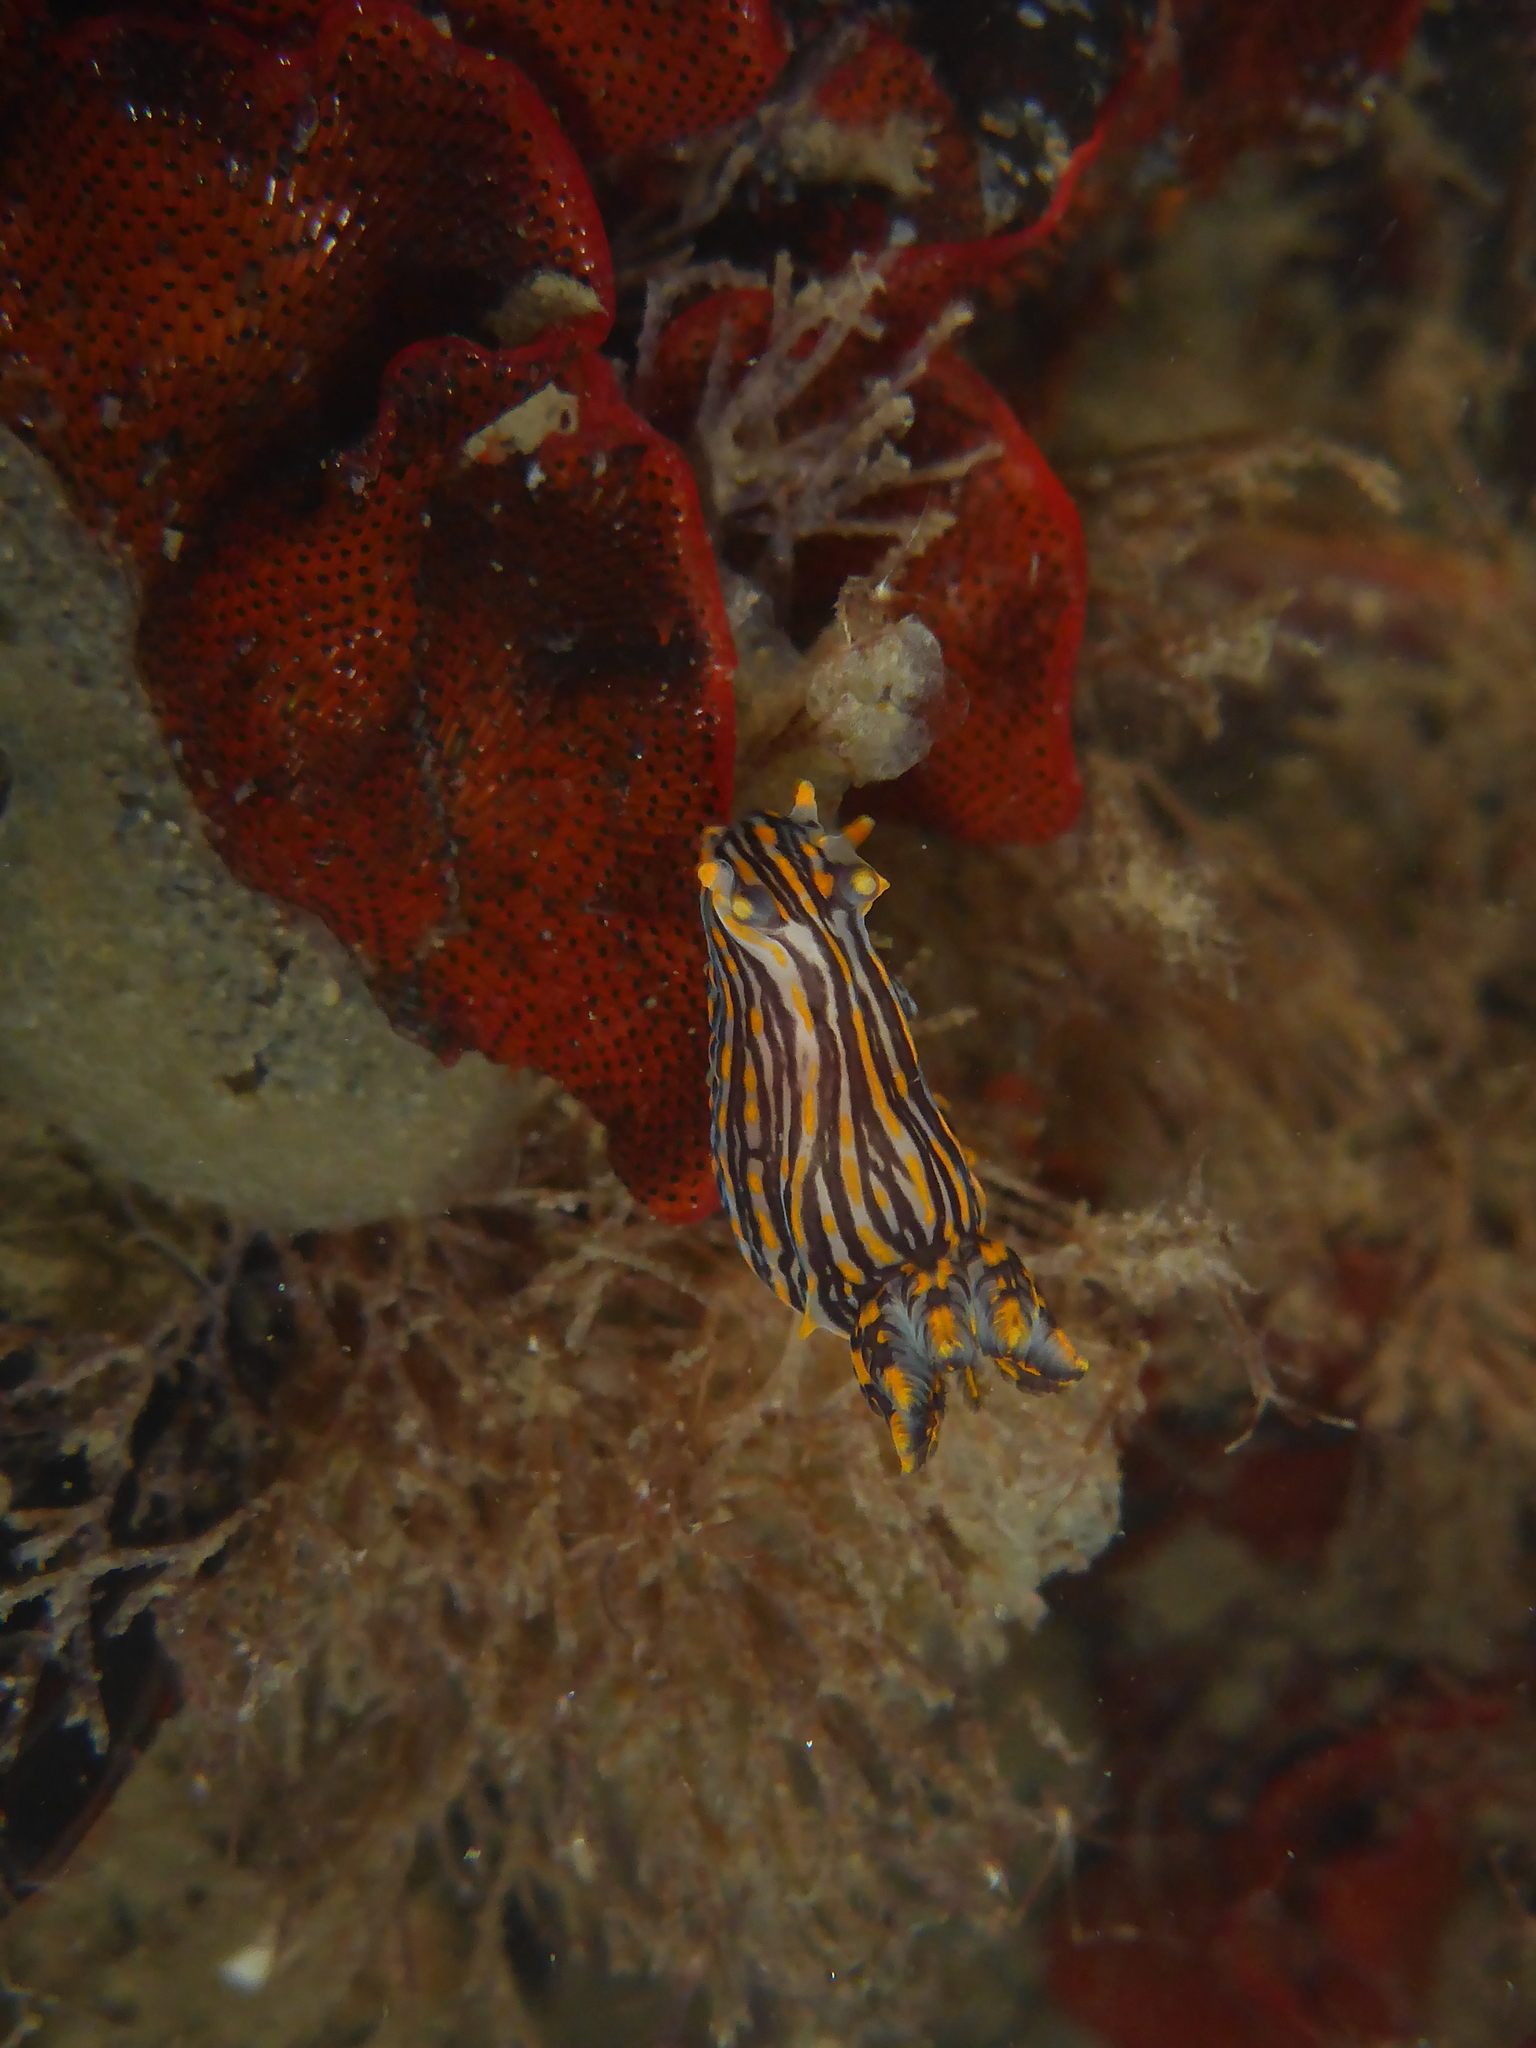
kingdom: Animalia
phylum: Mollusca
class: Gastropoda
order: Nudibranchia
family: Polyceridae
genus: Polycera
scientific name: Polycera atra
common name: Orange-spike polycera
